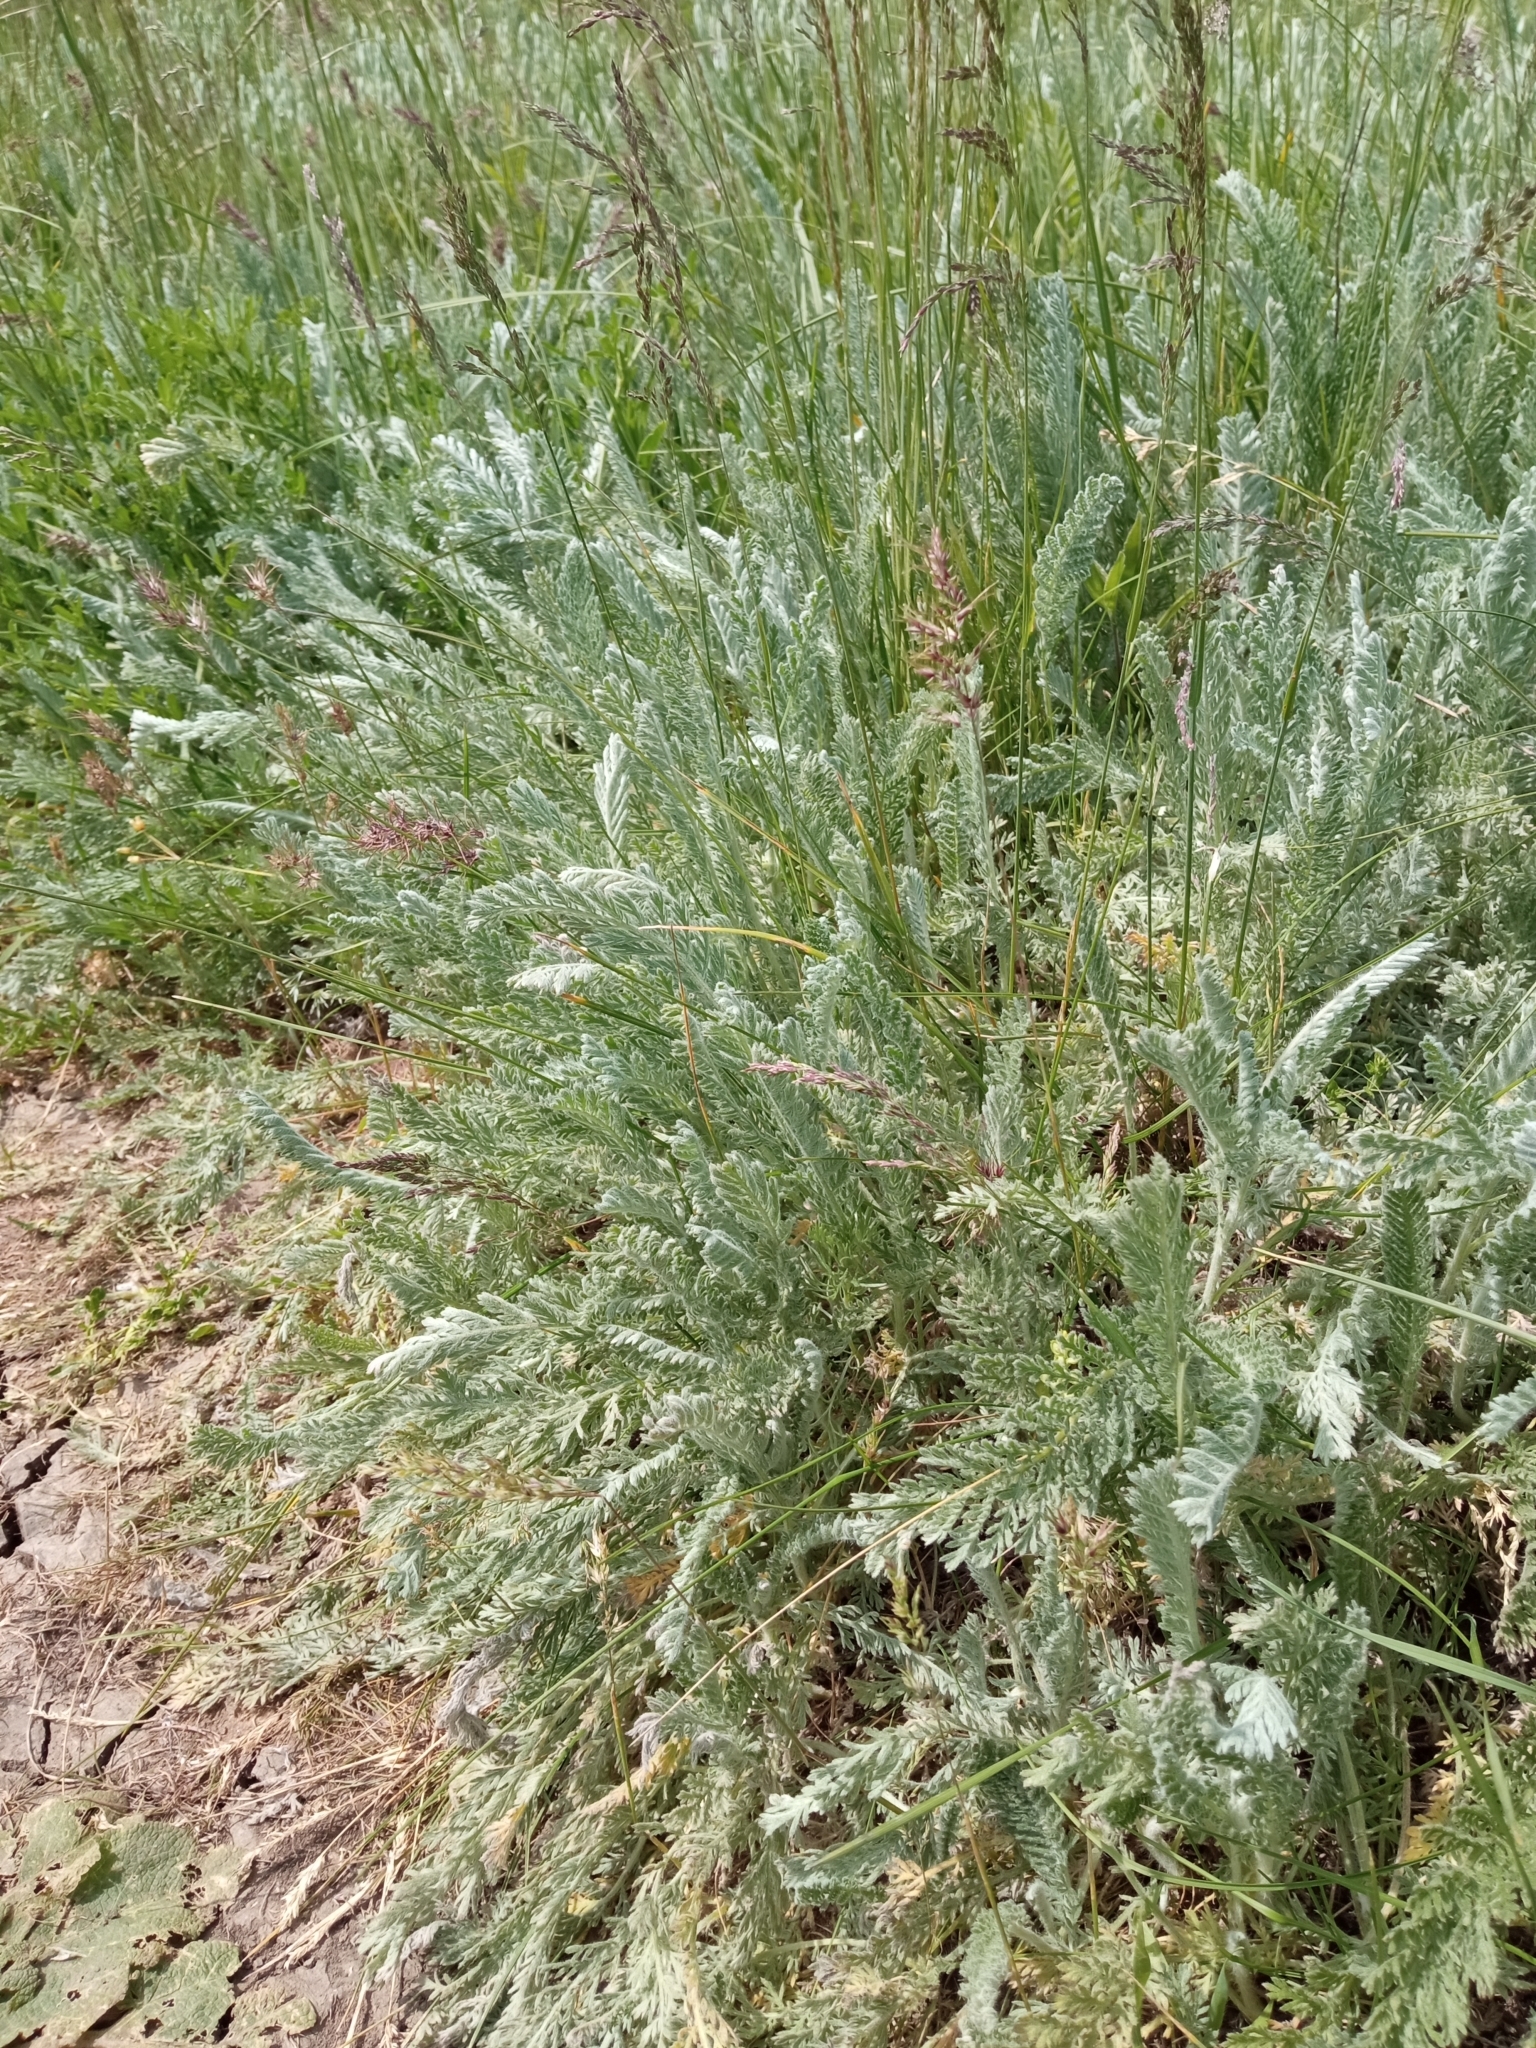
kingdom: Plantae
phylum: Tracheophyta
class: Magnoliopsida
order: Asterales
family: Asteraceae
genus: Tanacetum
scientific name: Tanacetum millefolium
